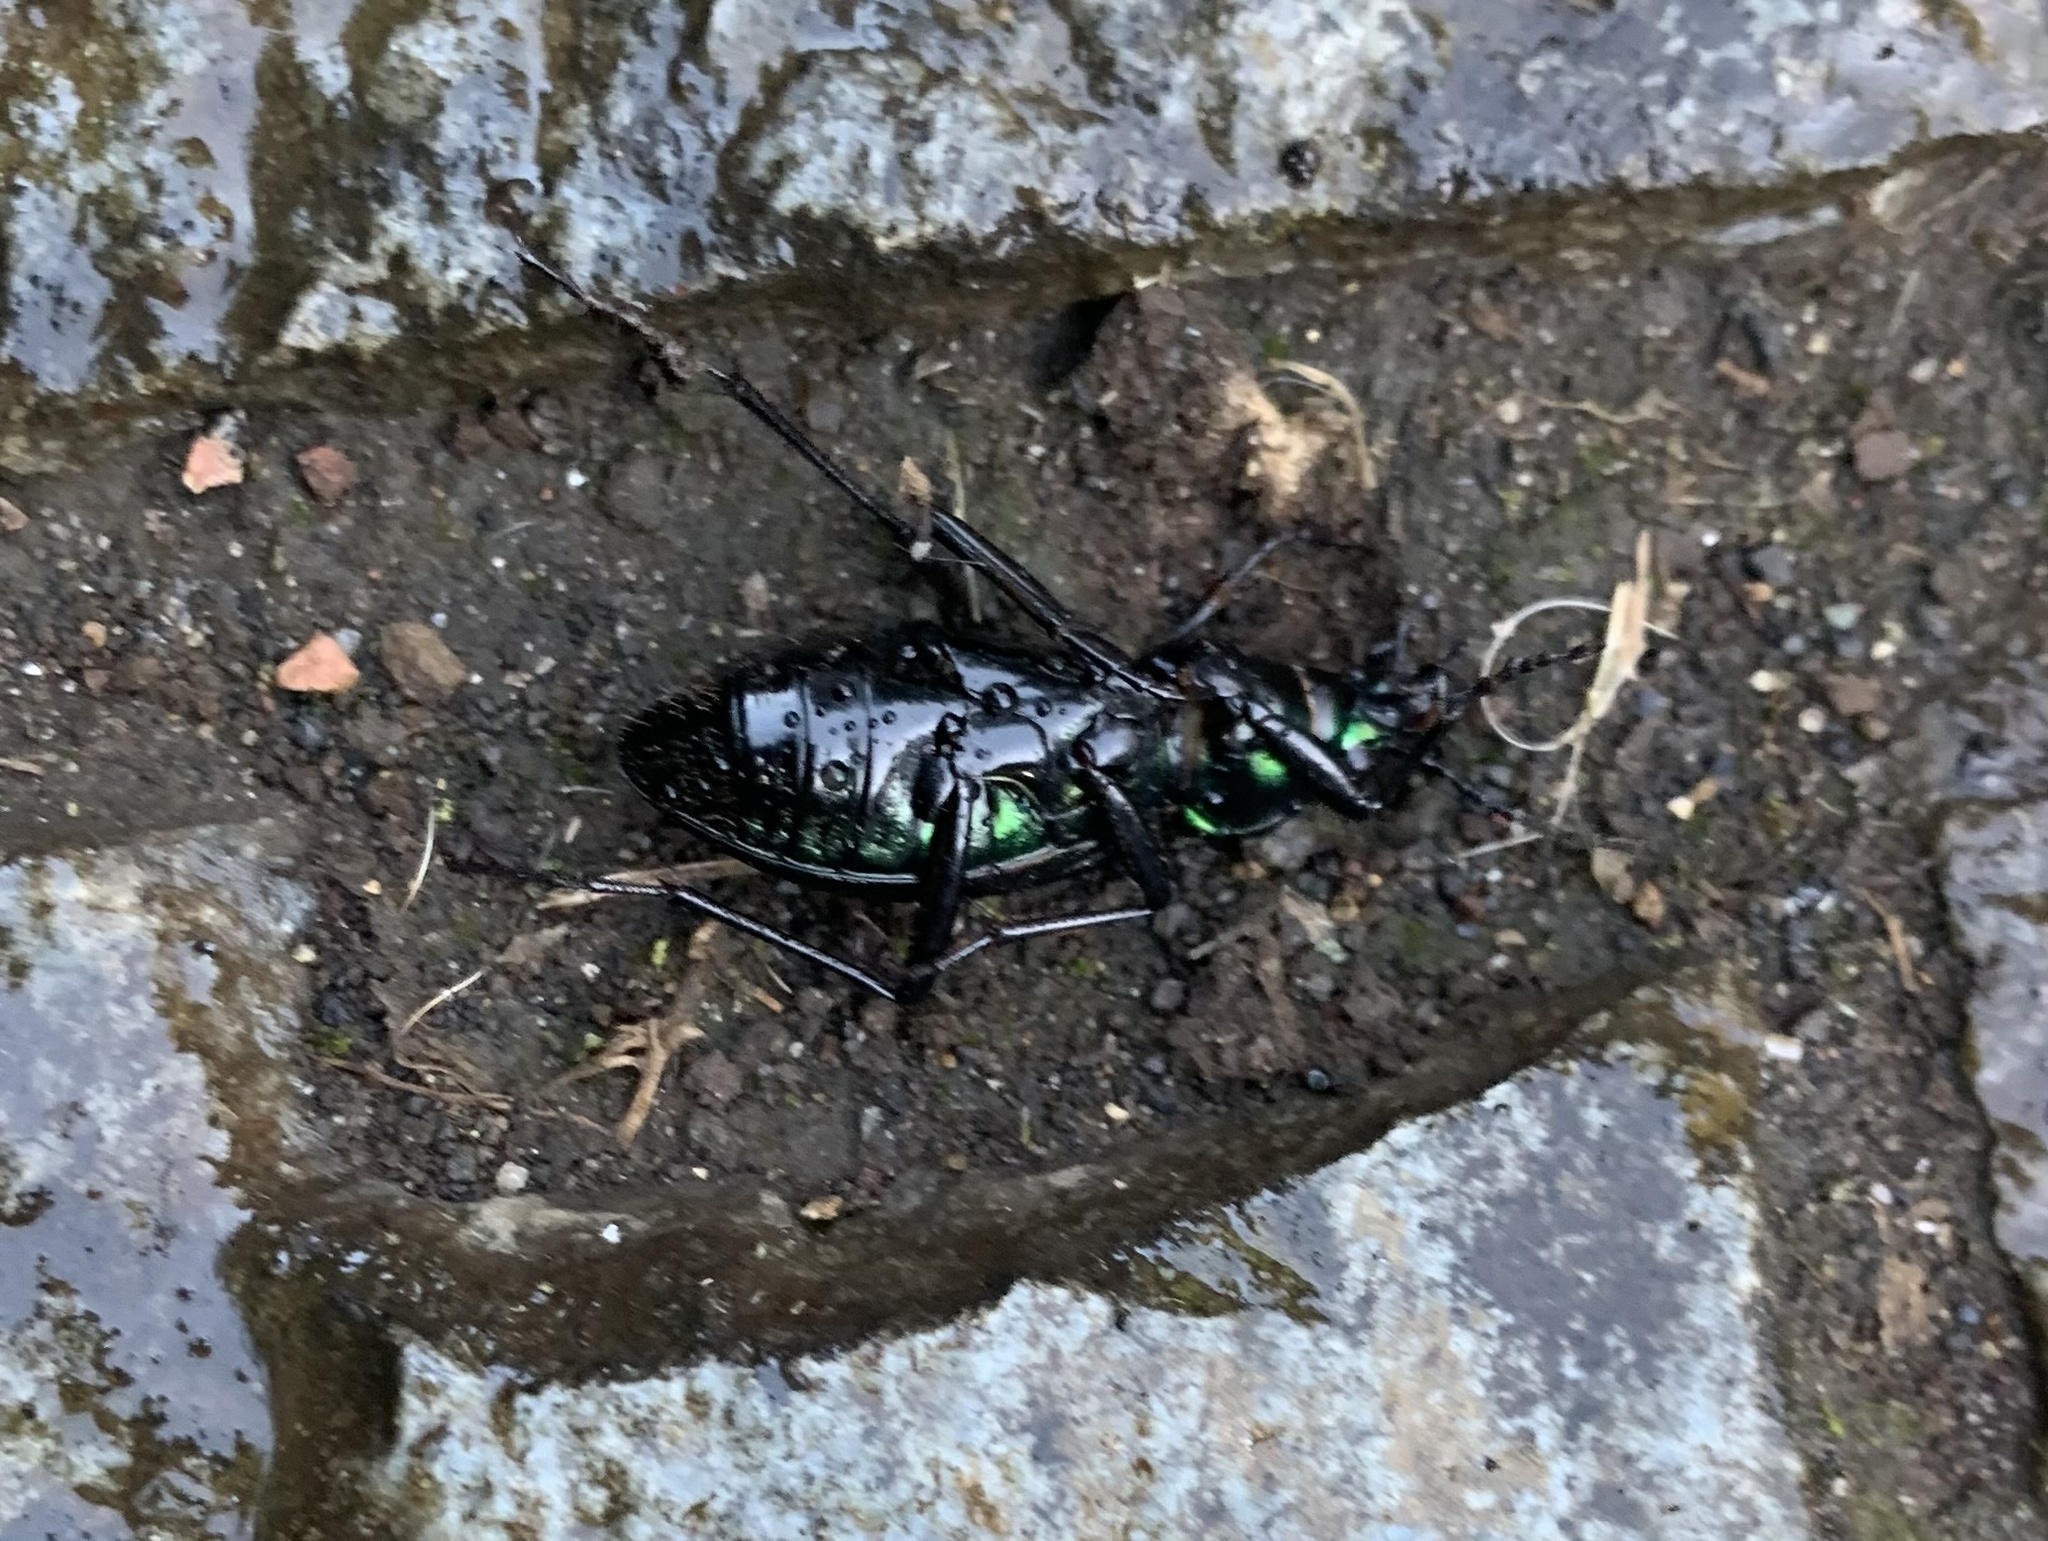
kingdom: Animalia
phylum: Arthropoda
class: Insecta
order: Coleoptera
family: Carabidae
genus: Ceroglossus
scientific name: Ceroglossus chilensis
